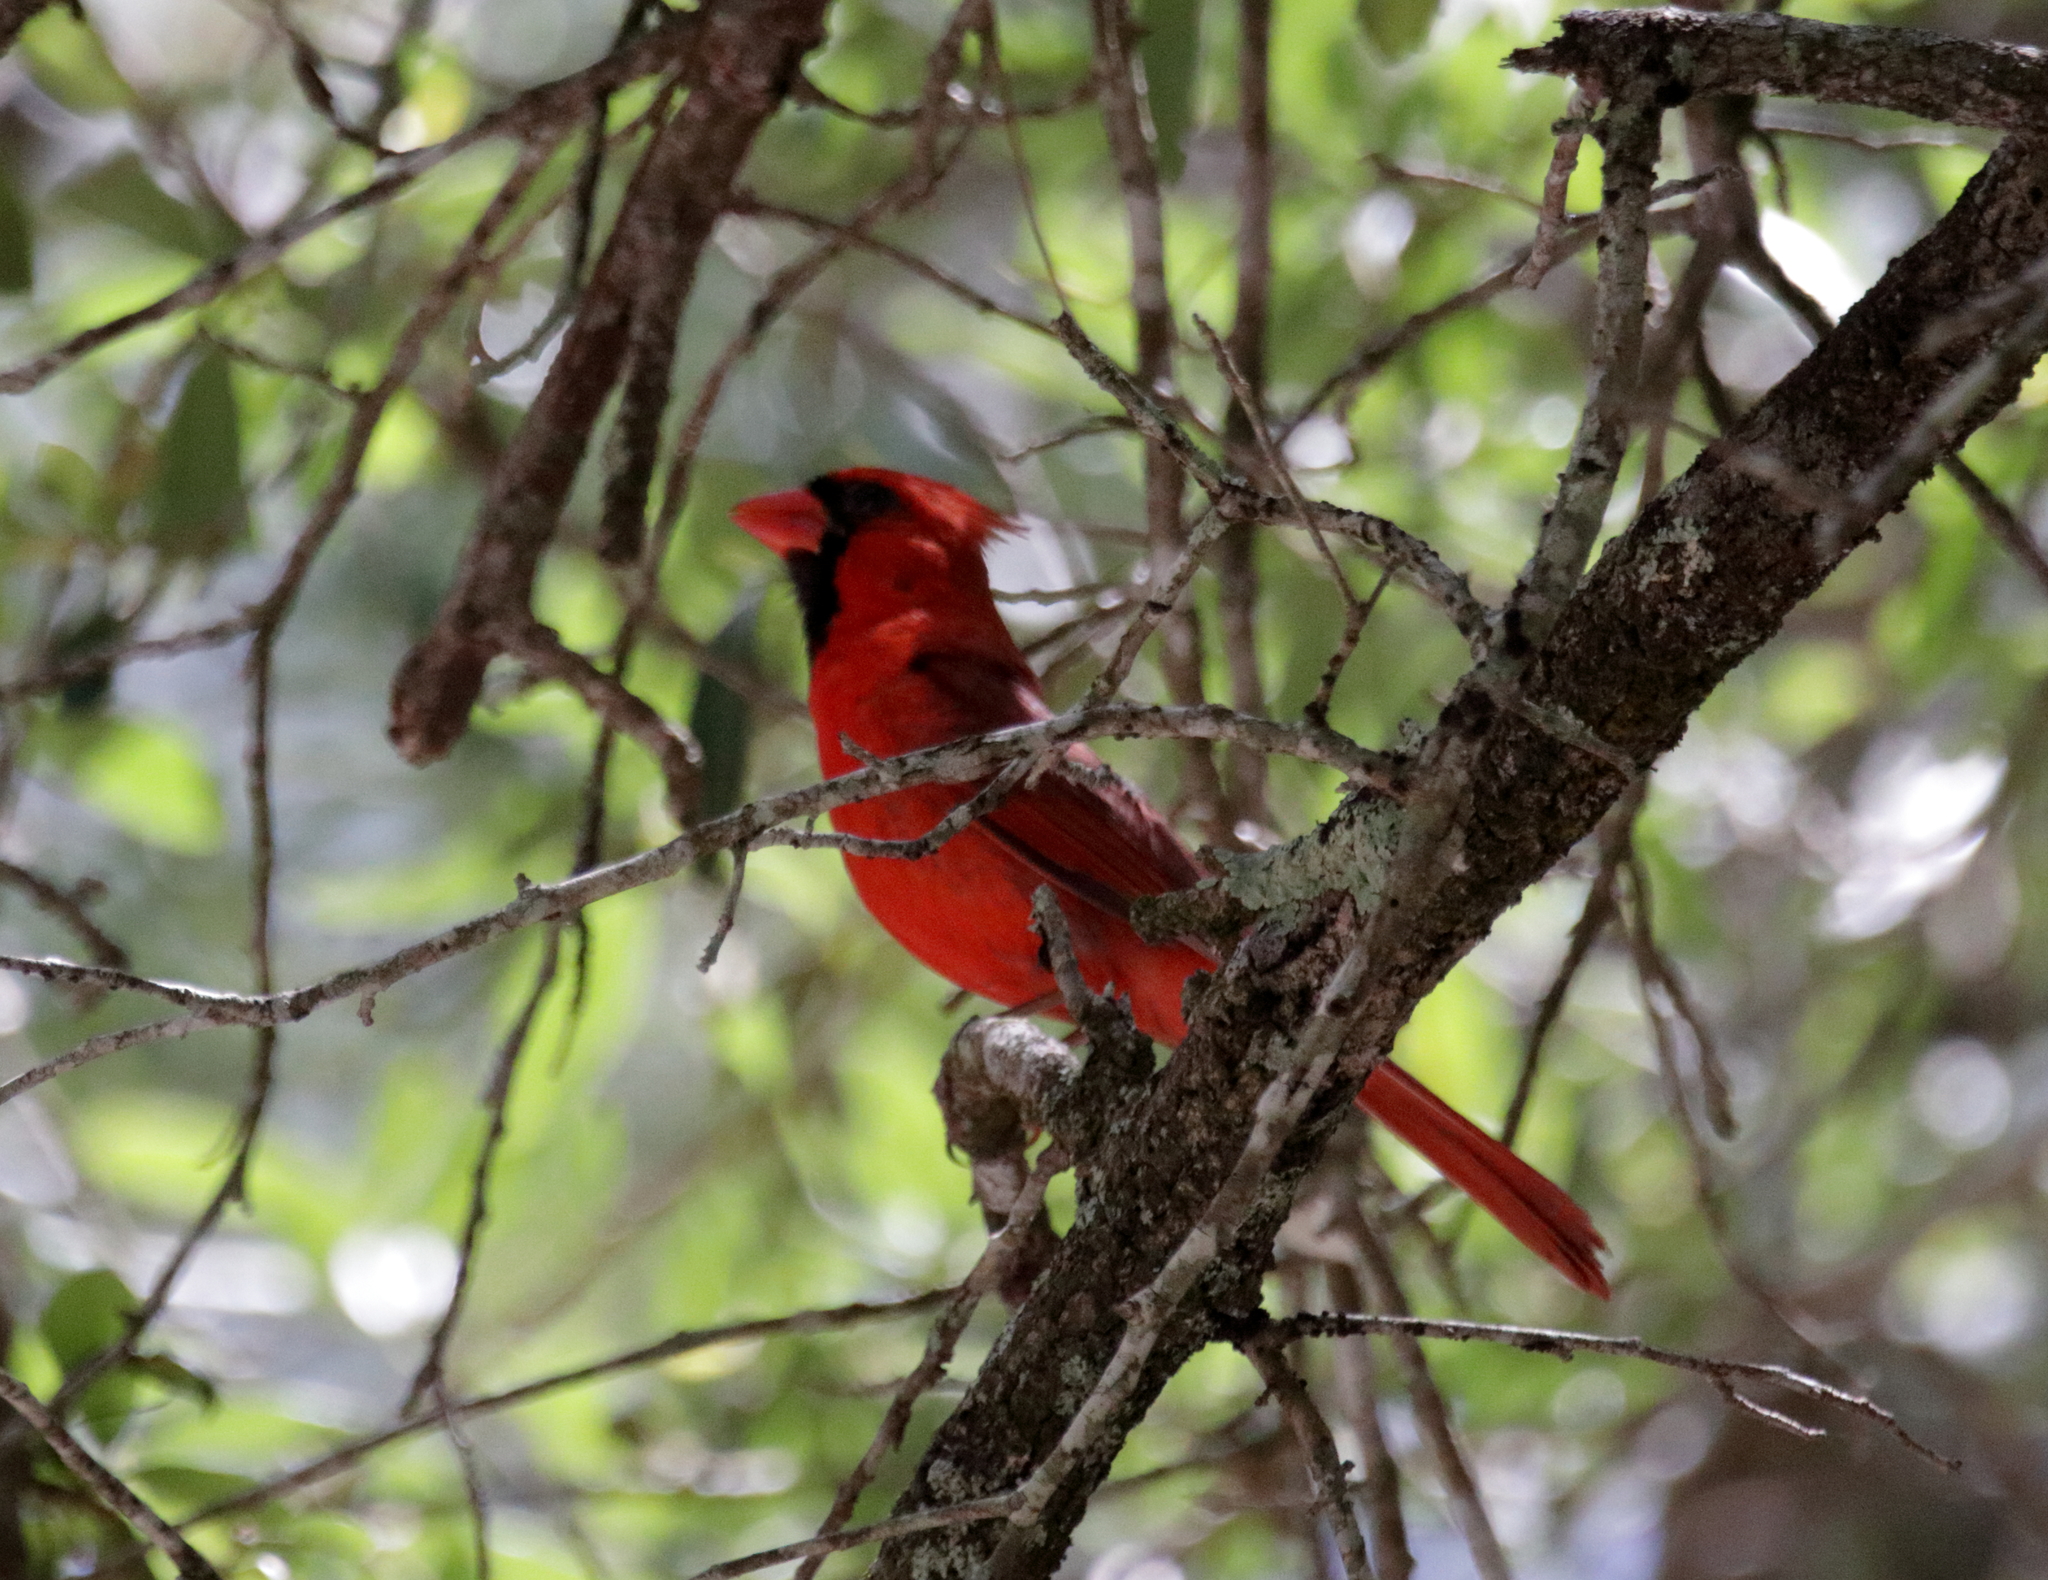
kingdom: Animalia
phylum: Chordata
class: Aves
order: Passeriformes
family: Cardinalidae
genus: Cardinalis
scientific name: Cardinalis cardinalis
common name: Northern cardinal
